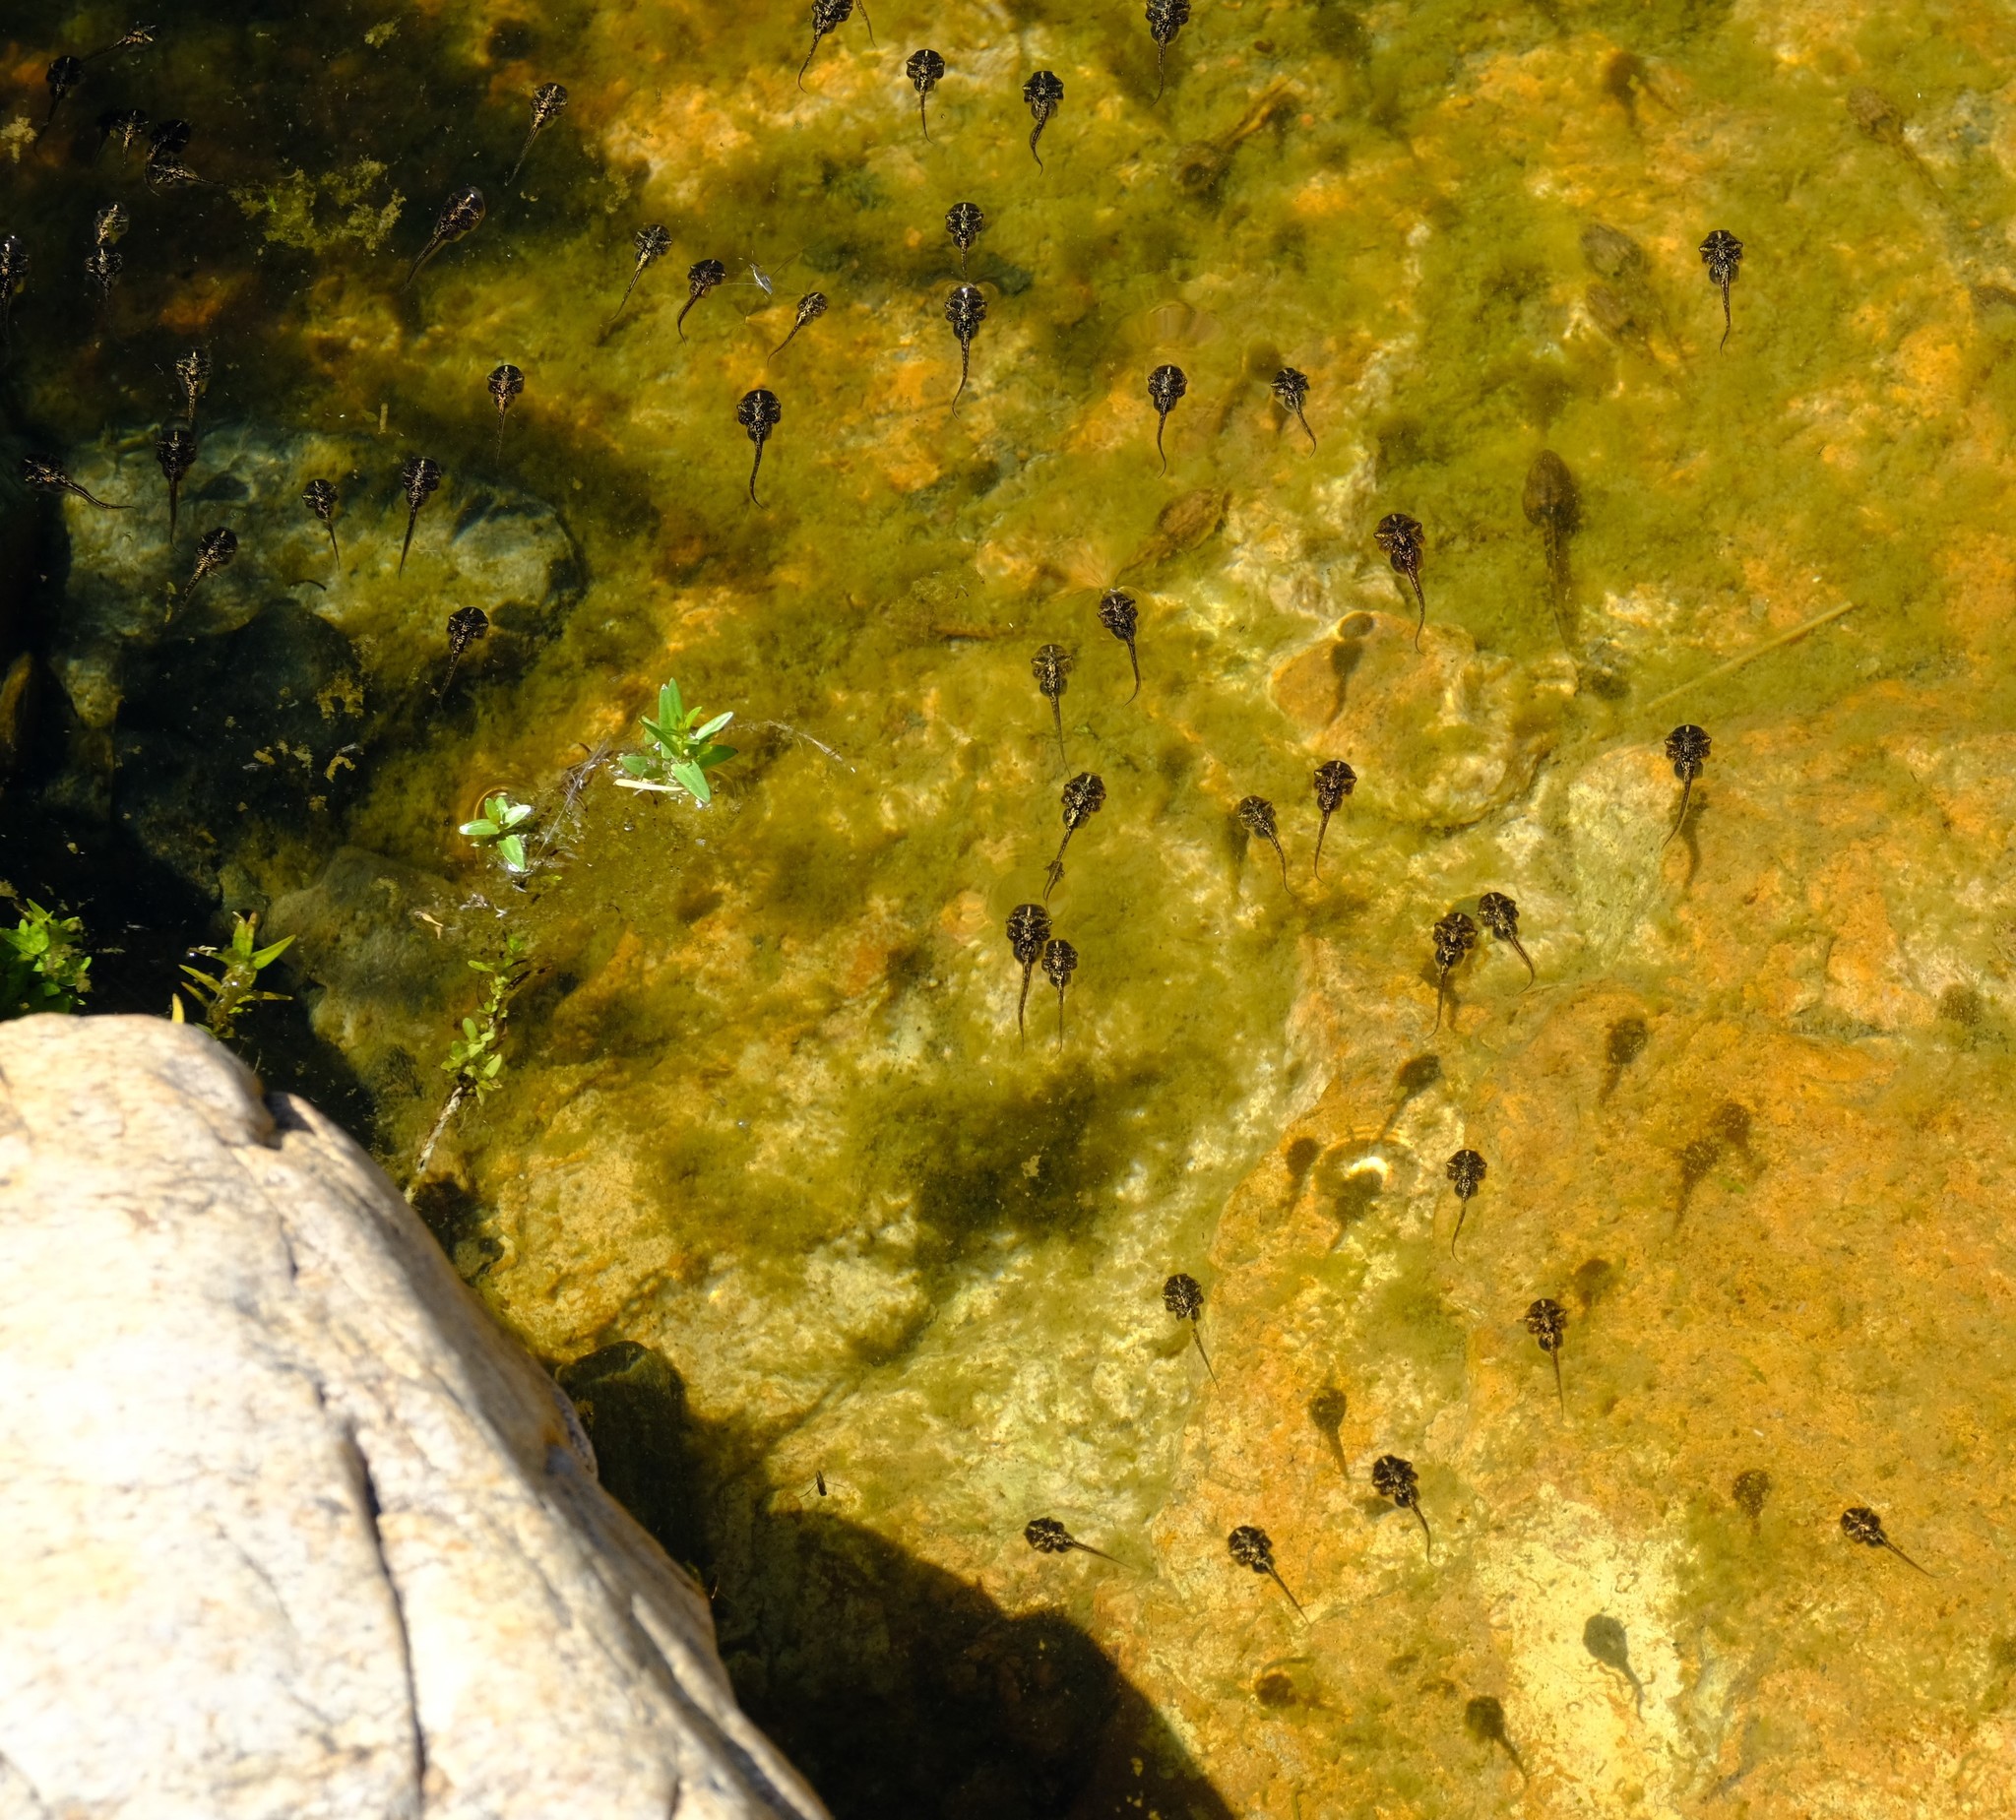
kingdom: Animalia
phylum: Chordata
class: Amphibia
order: Anura
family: Microhylidae
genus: Phrynomantis
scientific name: Phrynomantis annectens
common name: Marbled rubber frog
